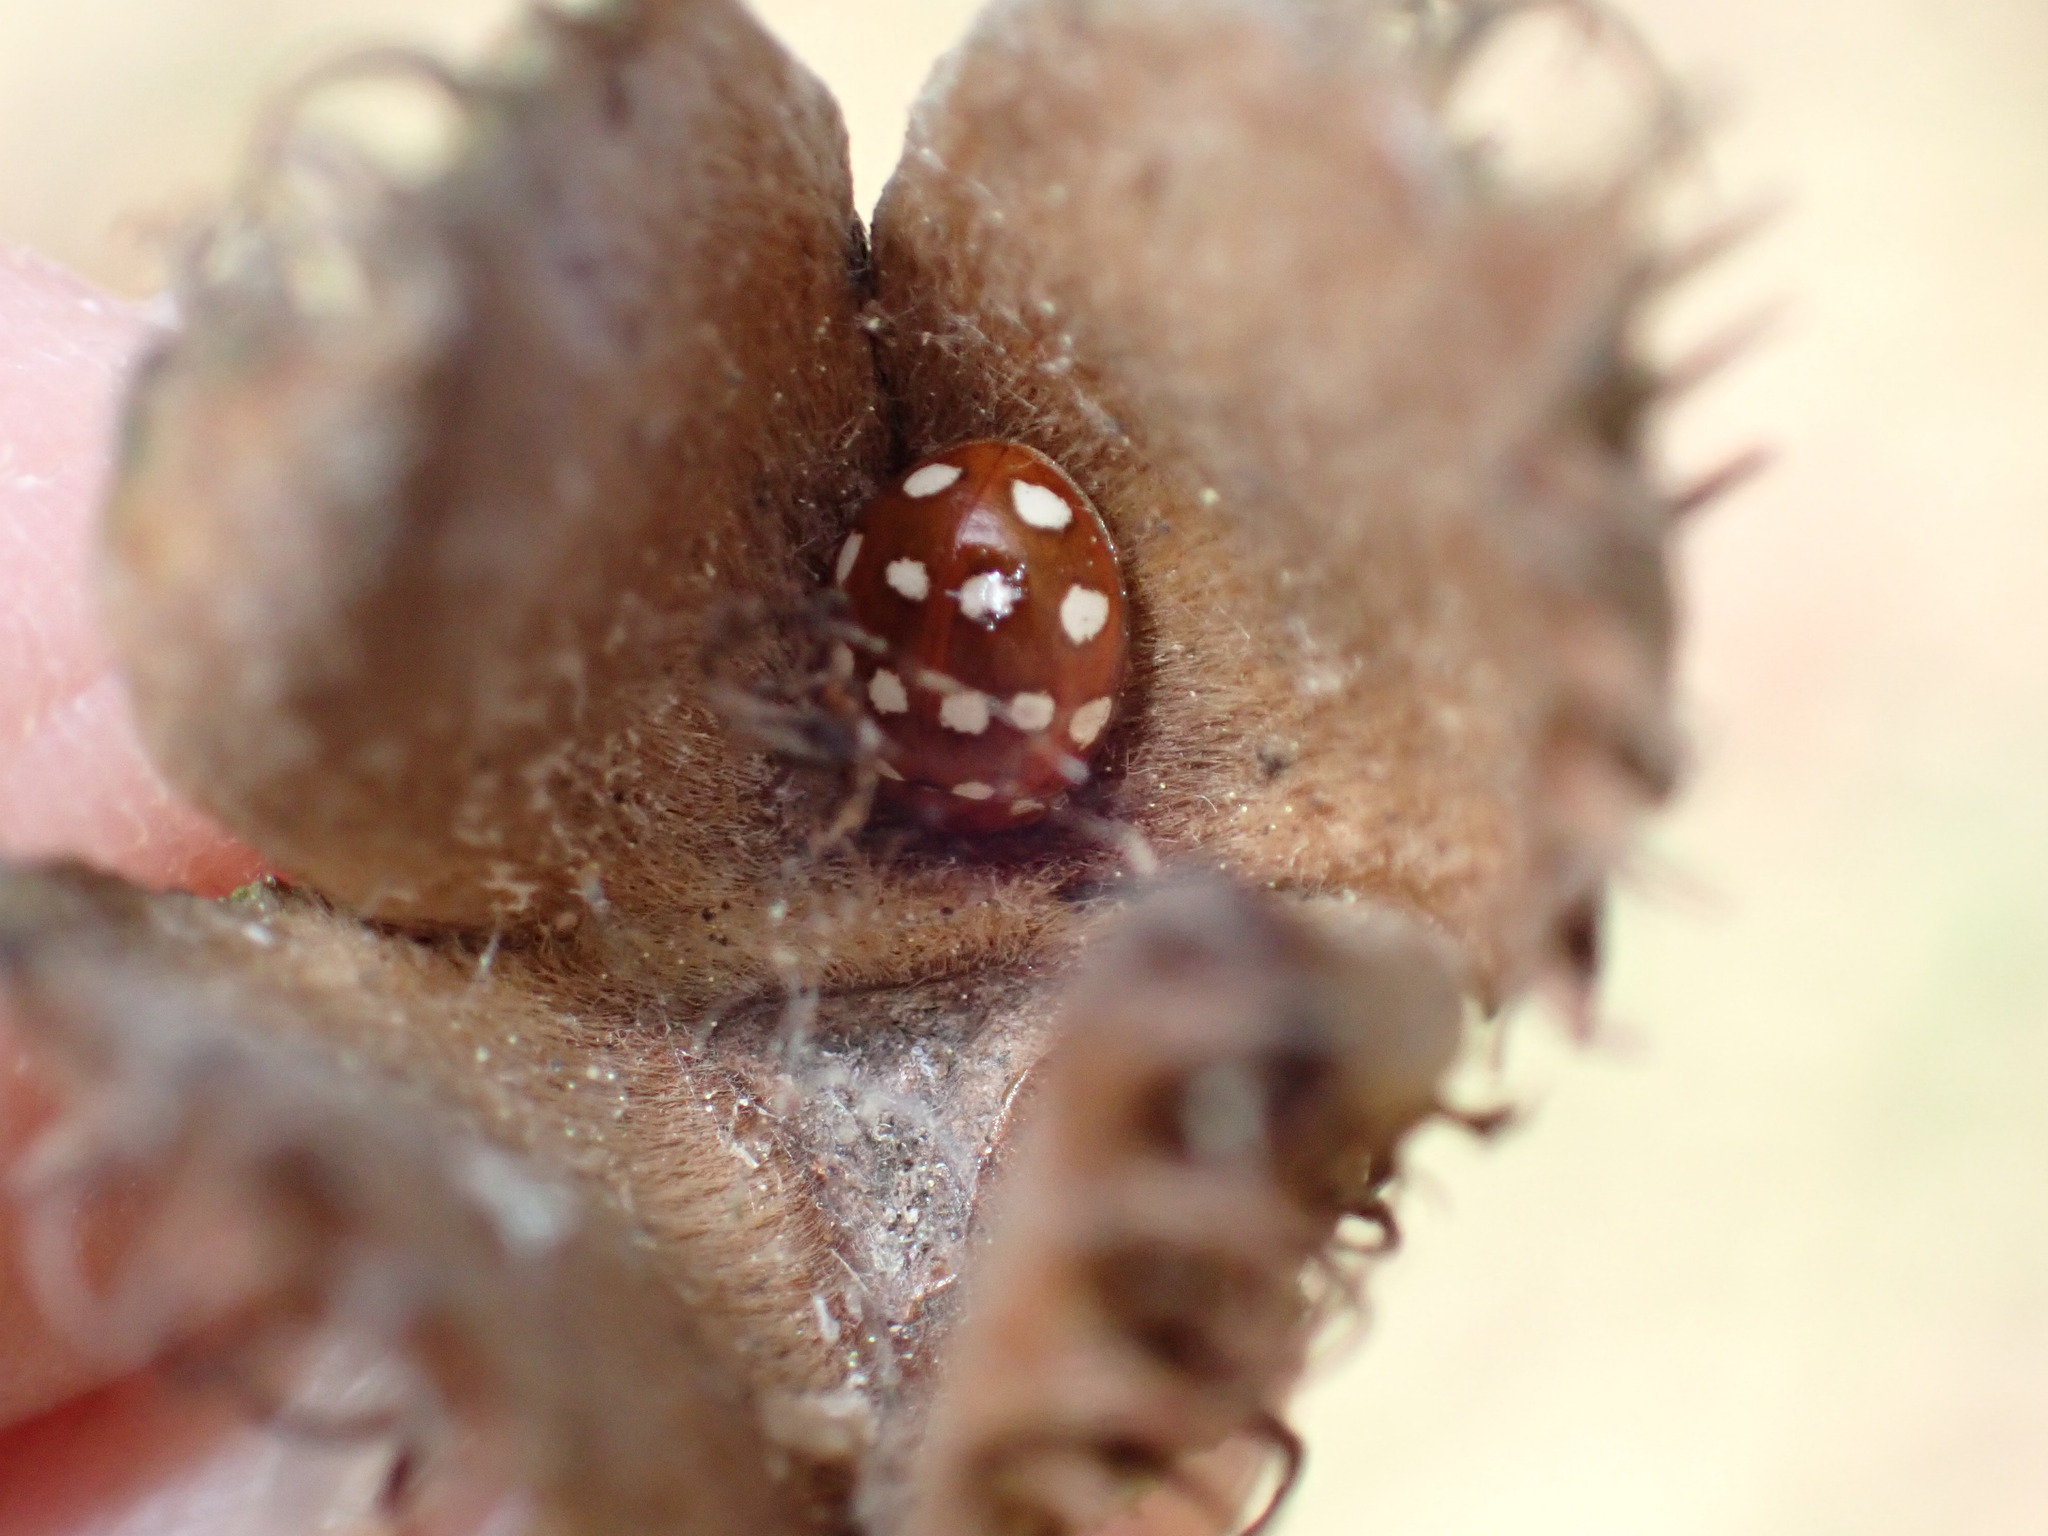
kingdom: Animalia
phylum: Arthropoda
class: Insecta
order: Coleoptera
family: Coccinellidae
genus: Calvia
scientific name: Calvia quatuordecimguttata
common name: Cream-spot ladybird
